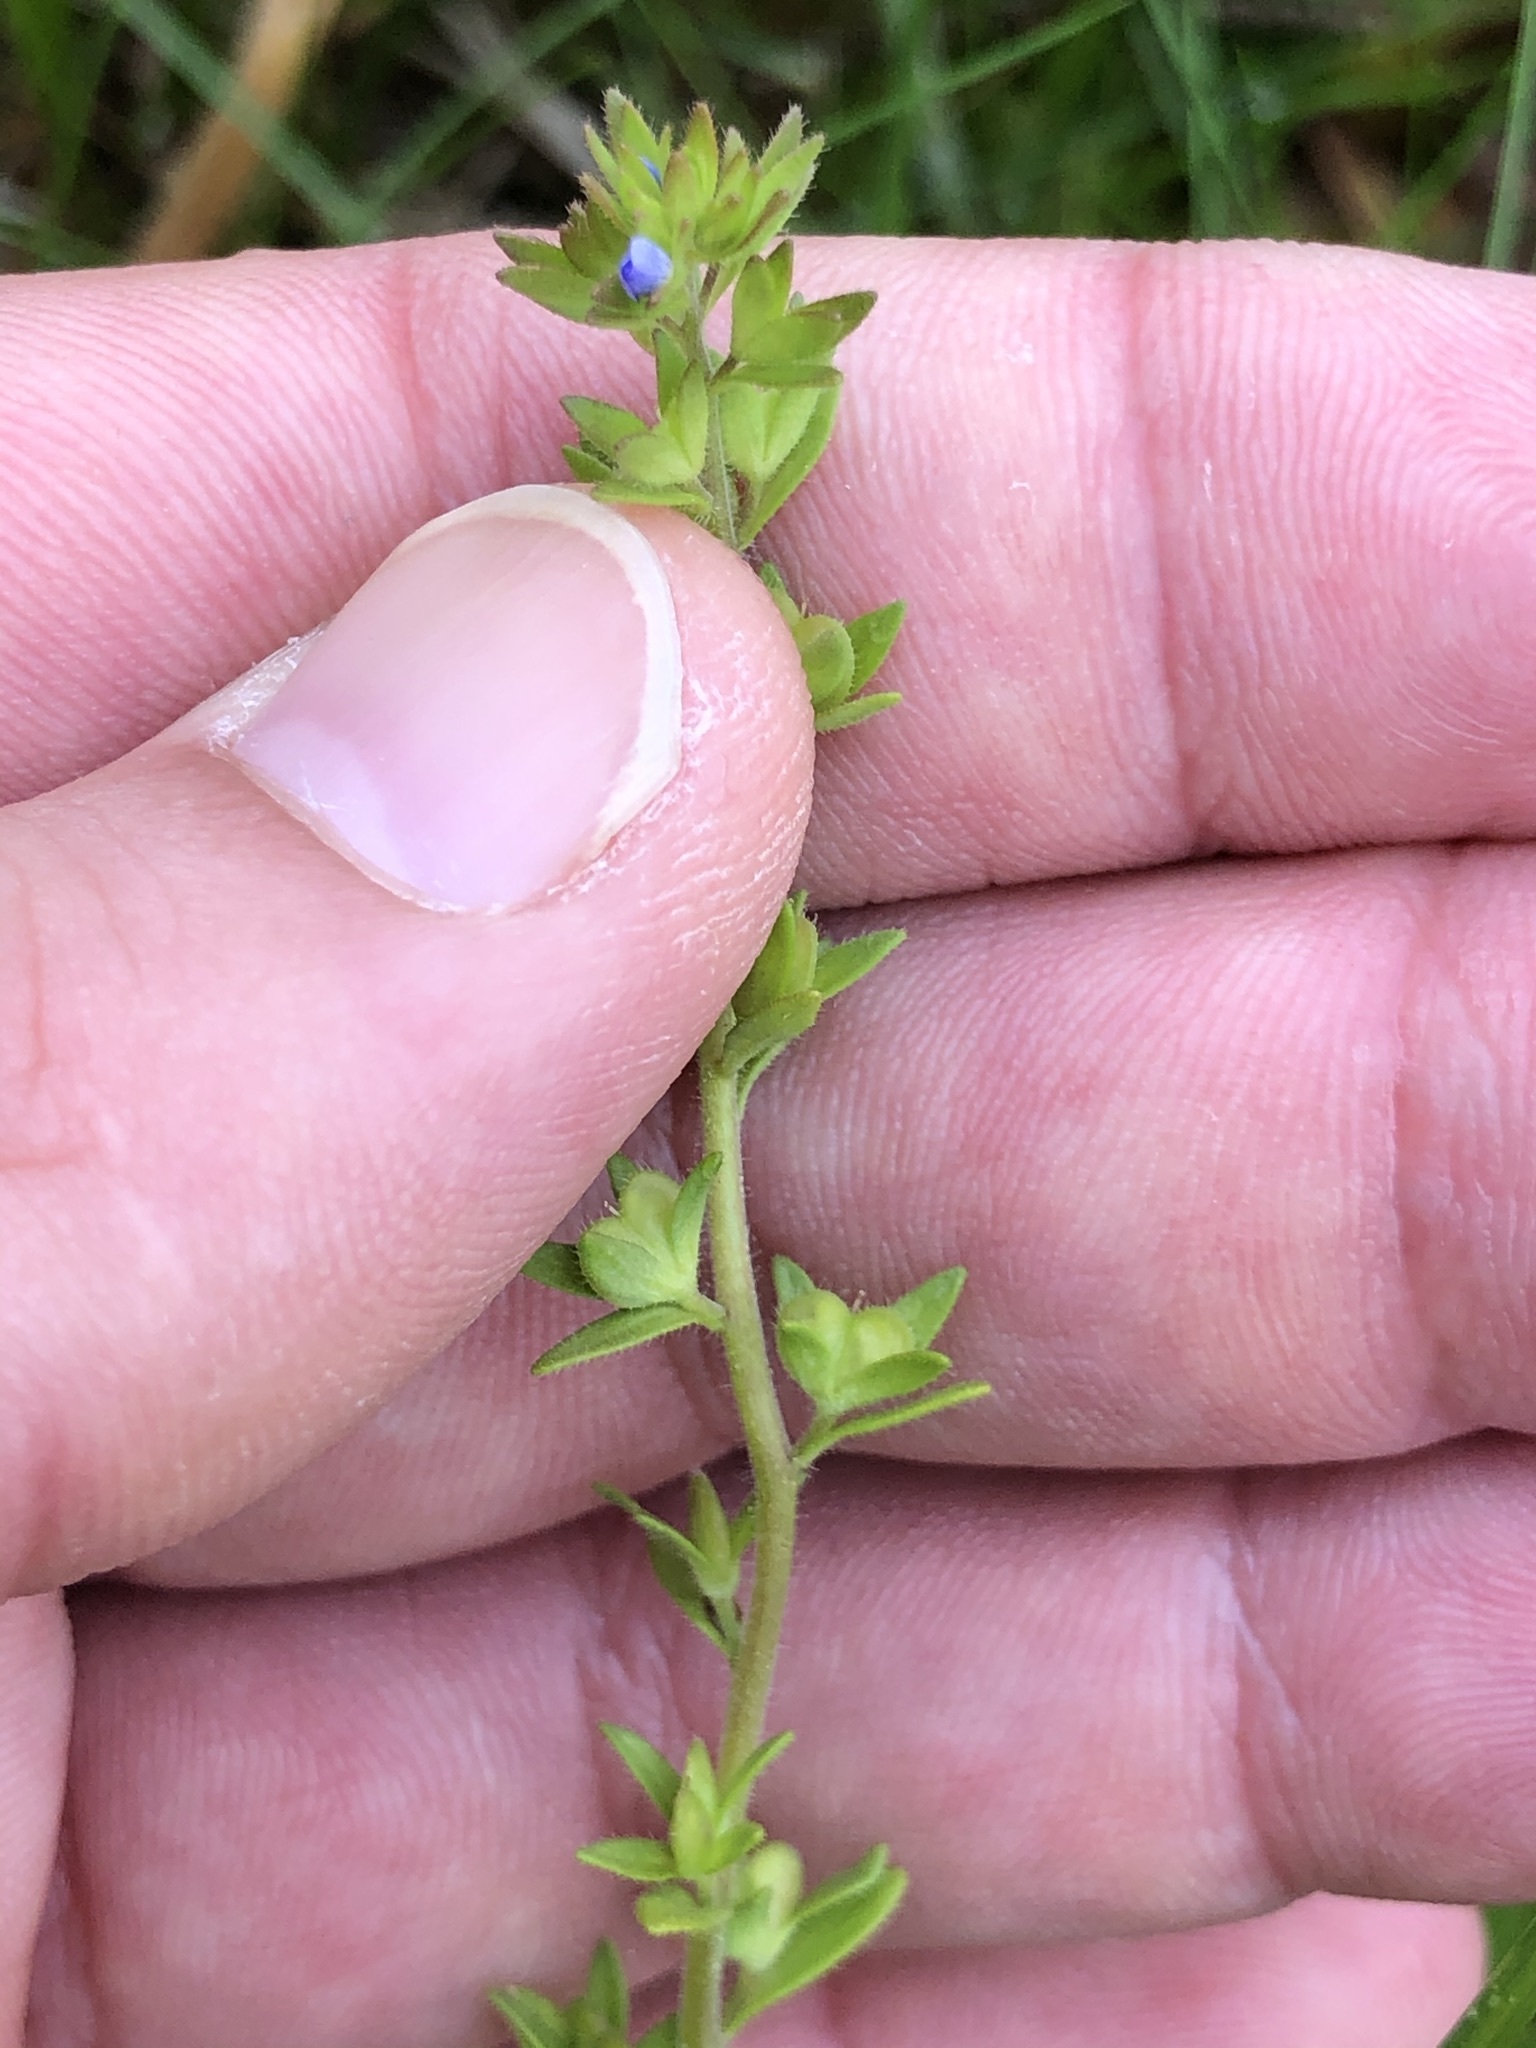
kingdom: Plantae
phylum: Tracheophyta
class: Magnoliopsida
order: Lamiales
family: Plantaginaceae
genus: Veronica
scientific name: Veronica arvensis
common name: Corn speedwell
